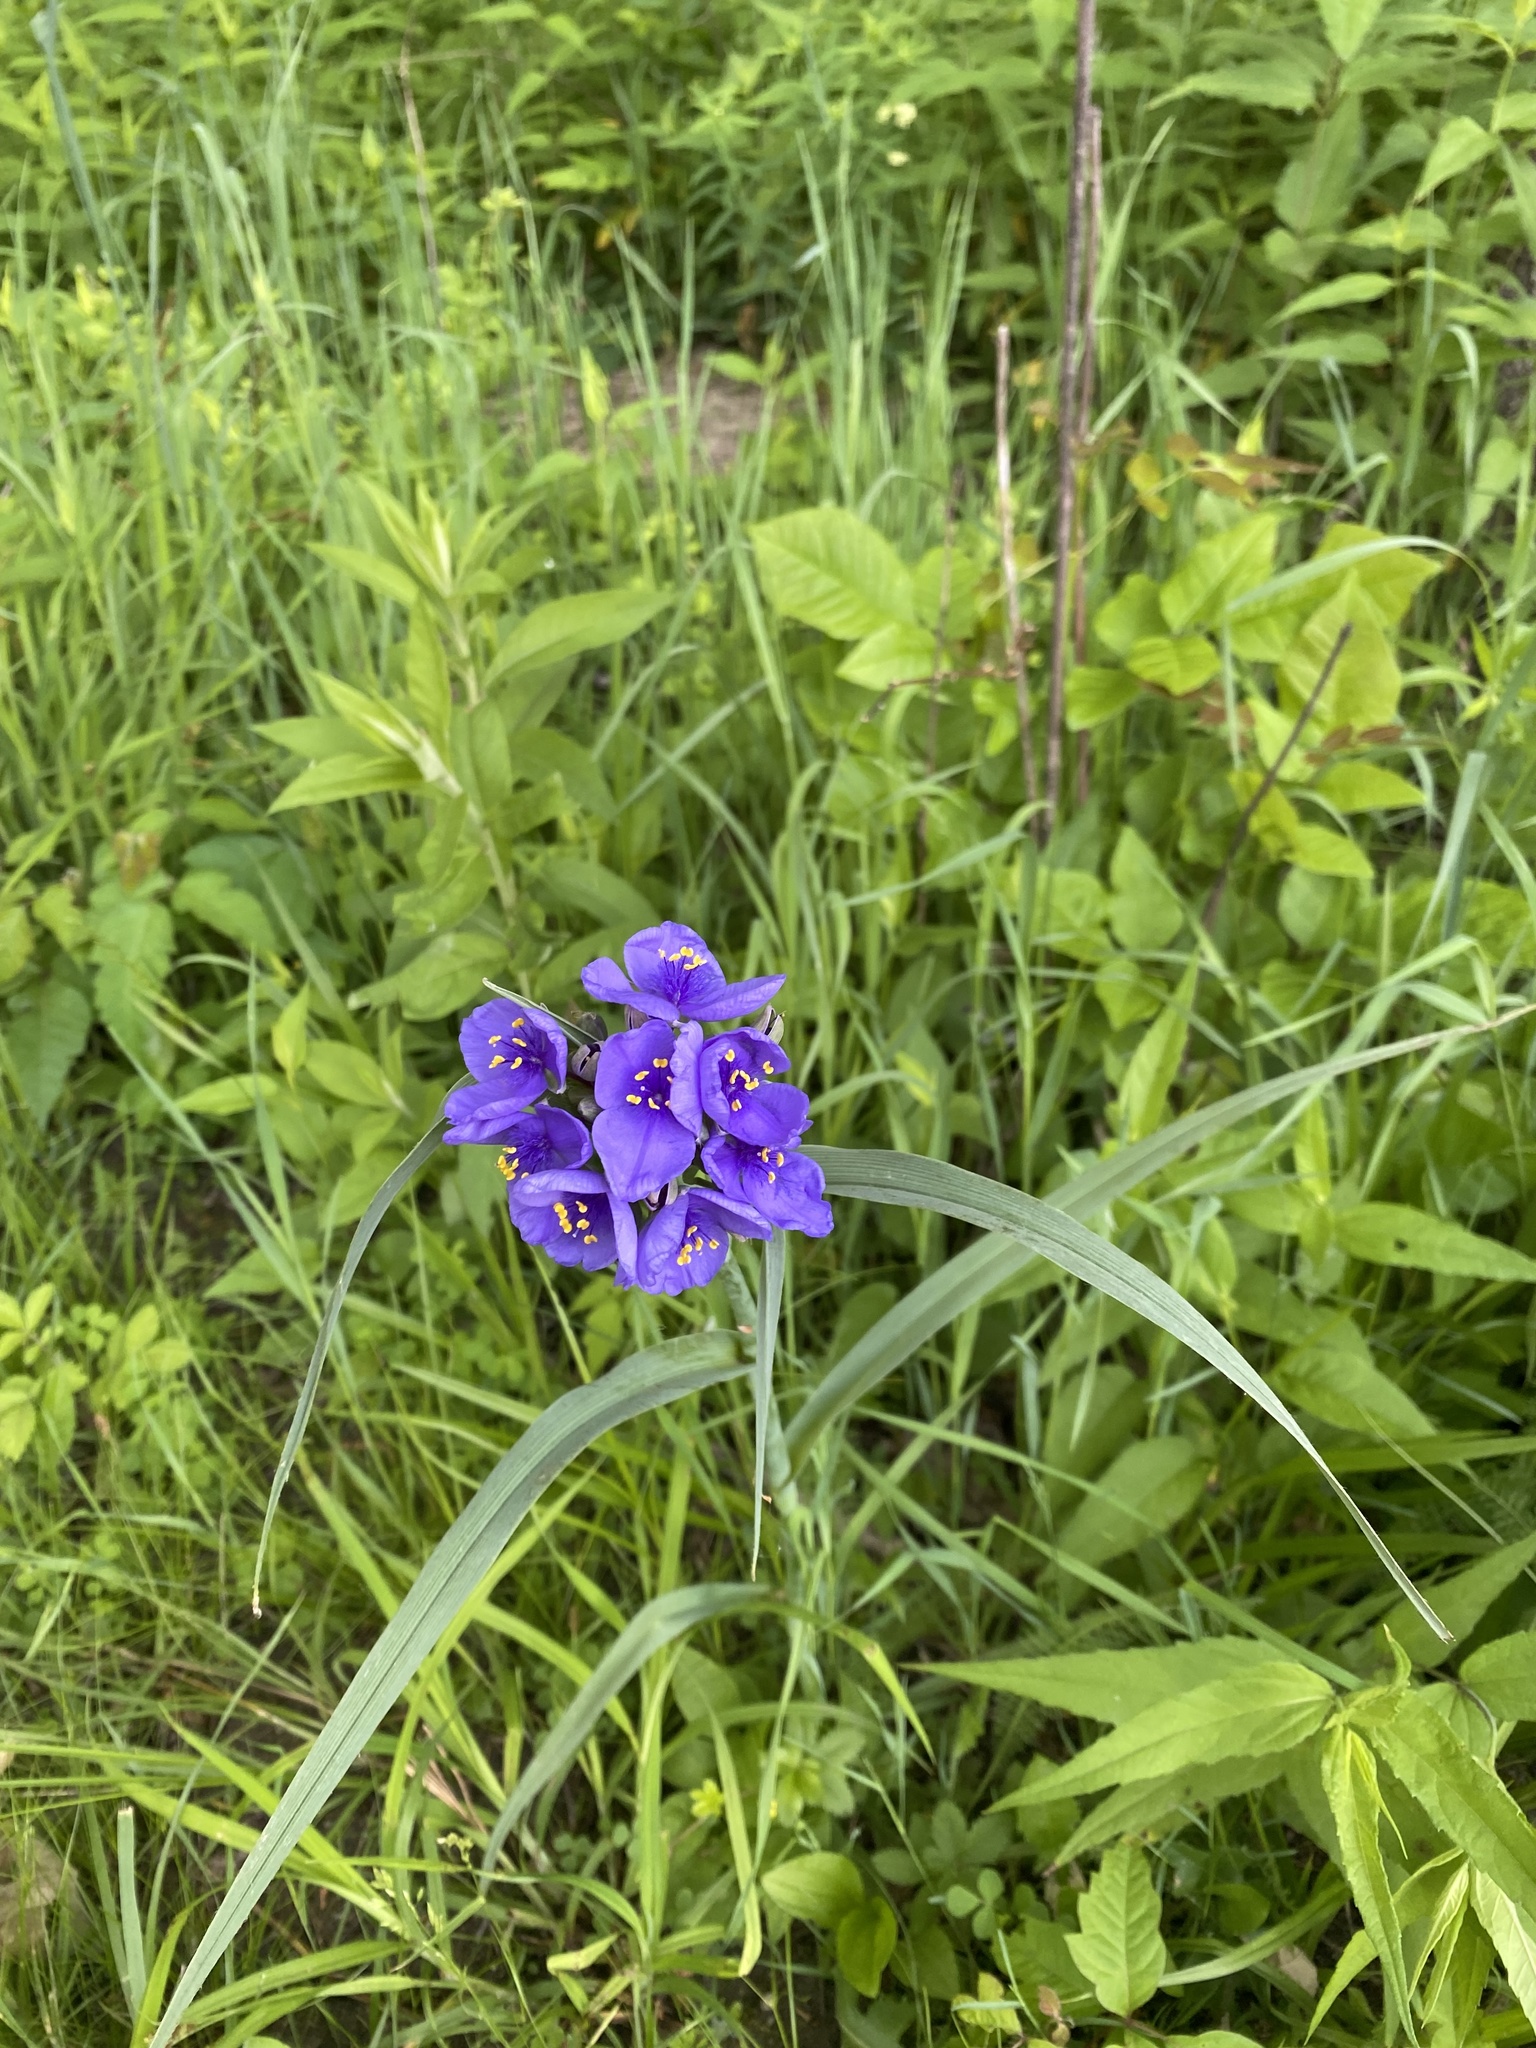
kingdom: Plantae
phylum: Tracheophyta
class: Liliopsida
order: Commelinales
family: Commelinaceae
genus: Tradescantia
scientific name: Tradescantia ohiensis
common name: Ohio spiderwort
